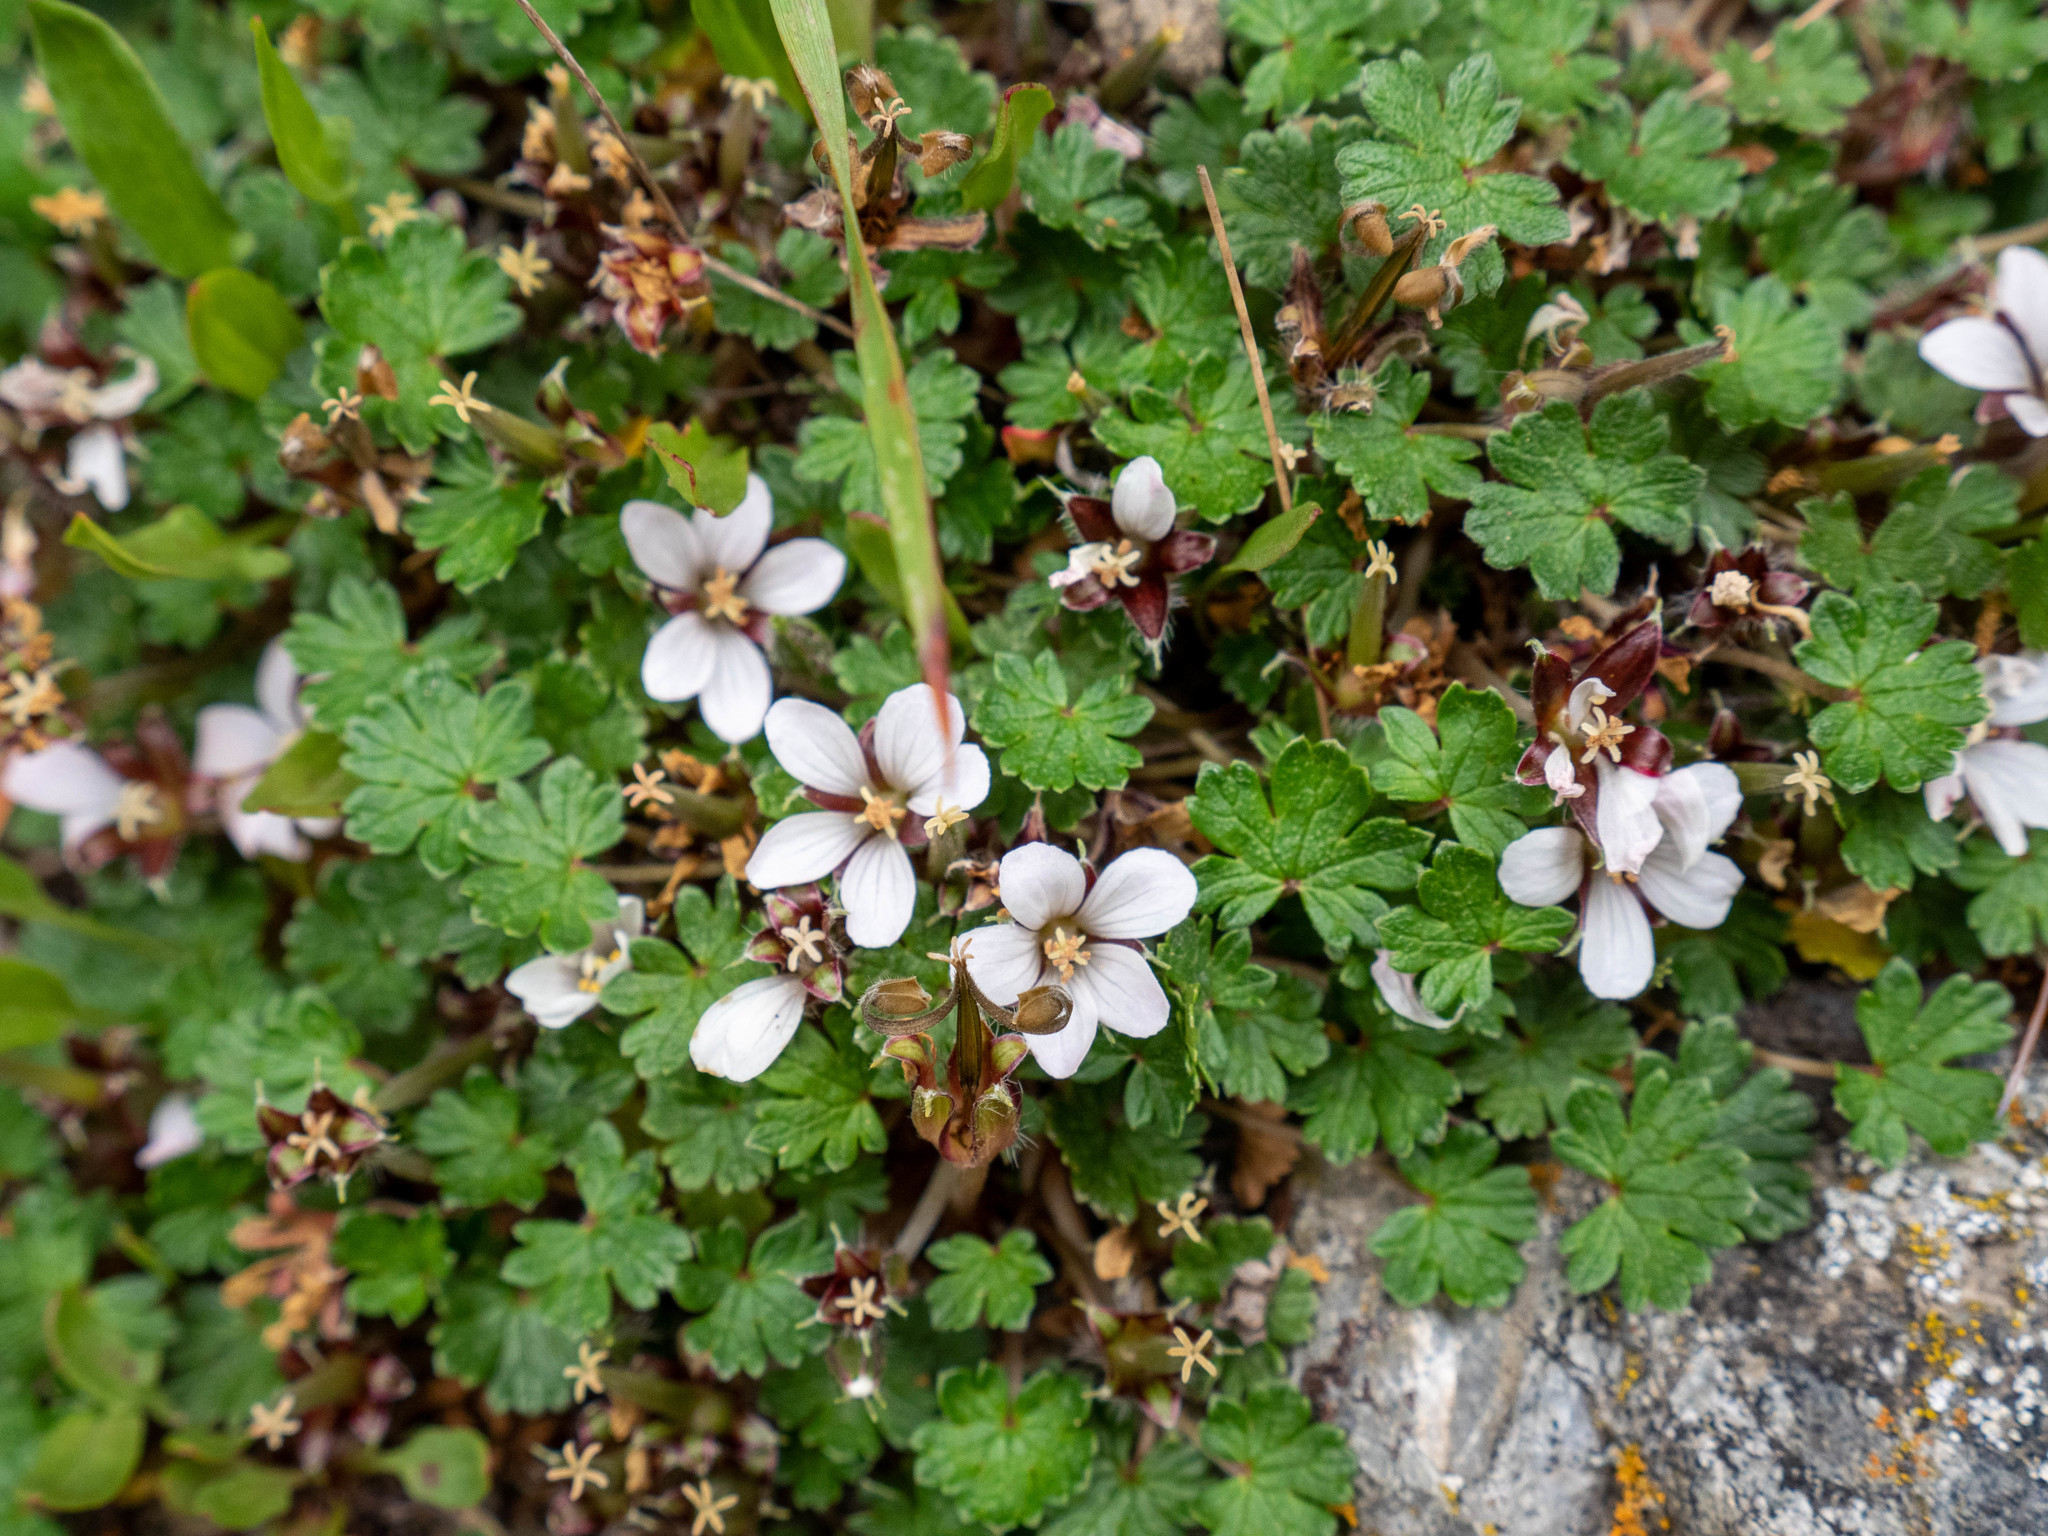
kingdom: Plantae
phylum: Tracheophyta
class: Magnoliopsida
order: Geraniales
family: Geraniaceae
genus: Geranium
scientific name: Geranium brevicaule
